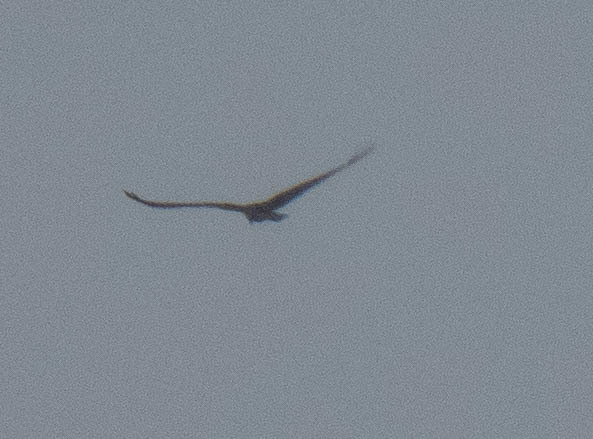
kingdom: Animalia
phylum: Chordata
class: Aves
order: Accipitriformes
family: Pandionidae
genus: Pandion
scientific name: Pandion haliaetus
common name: Osprey
